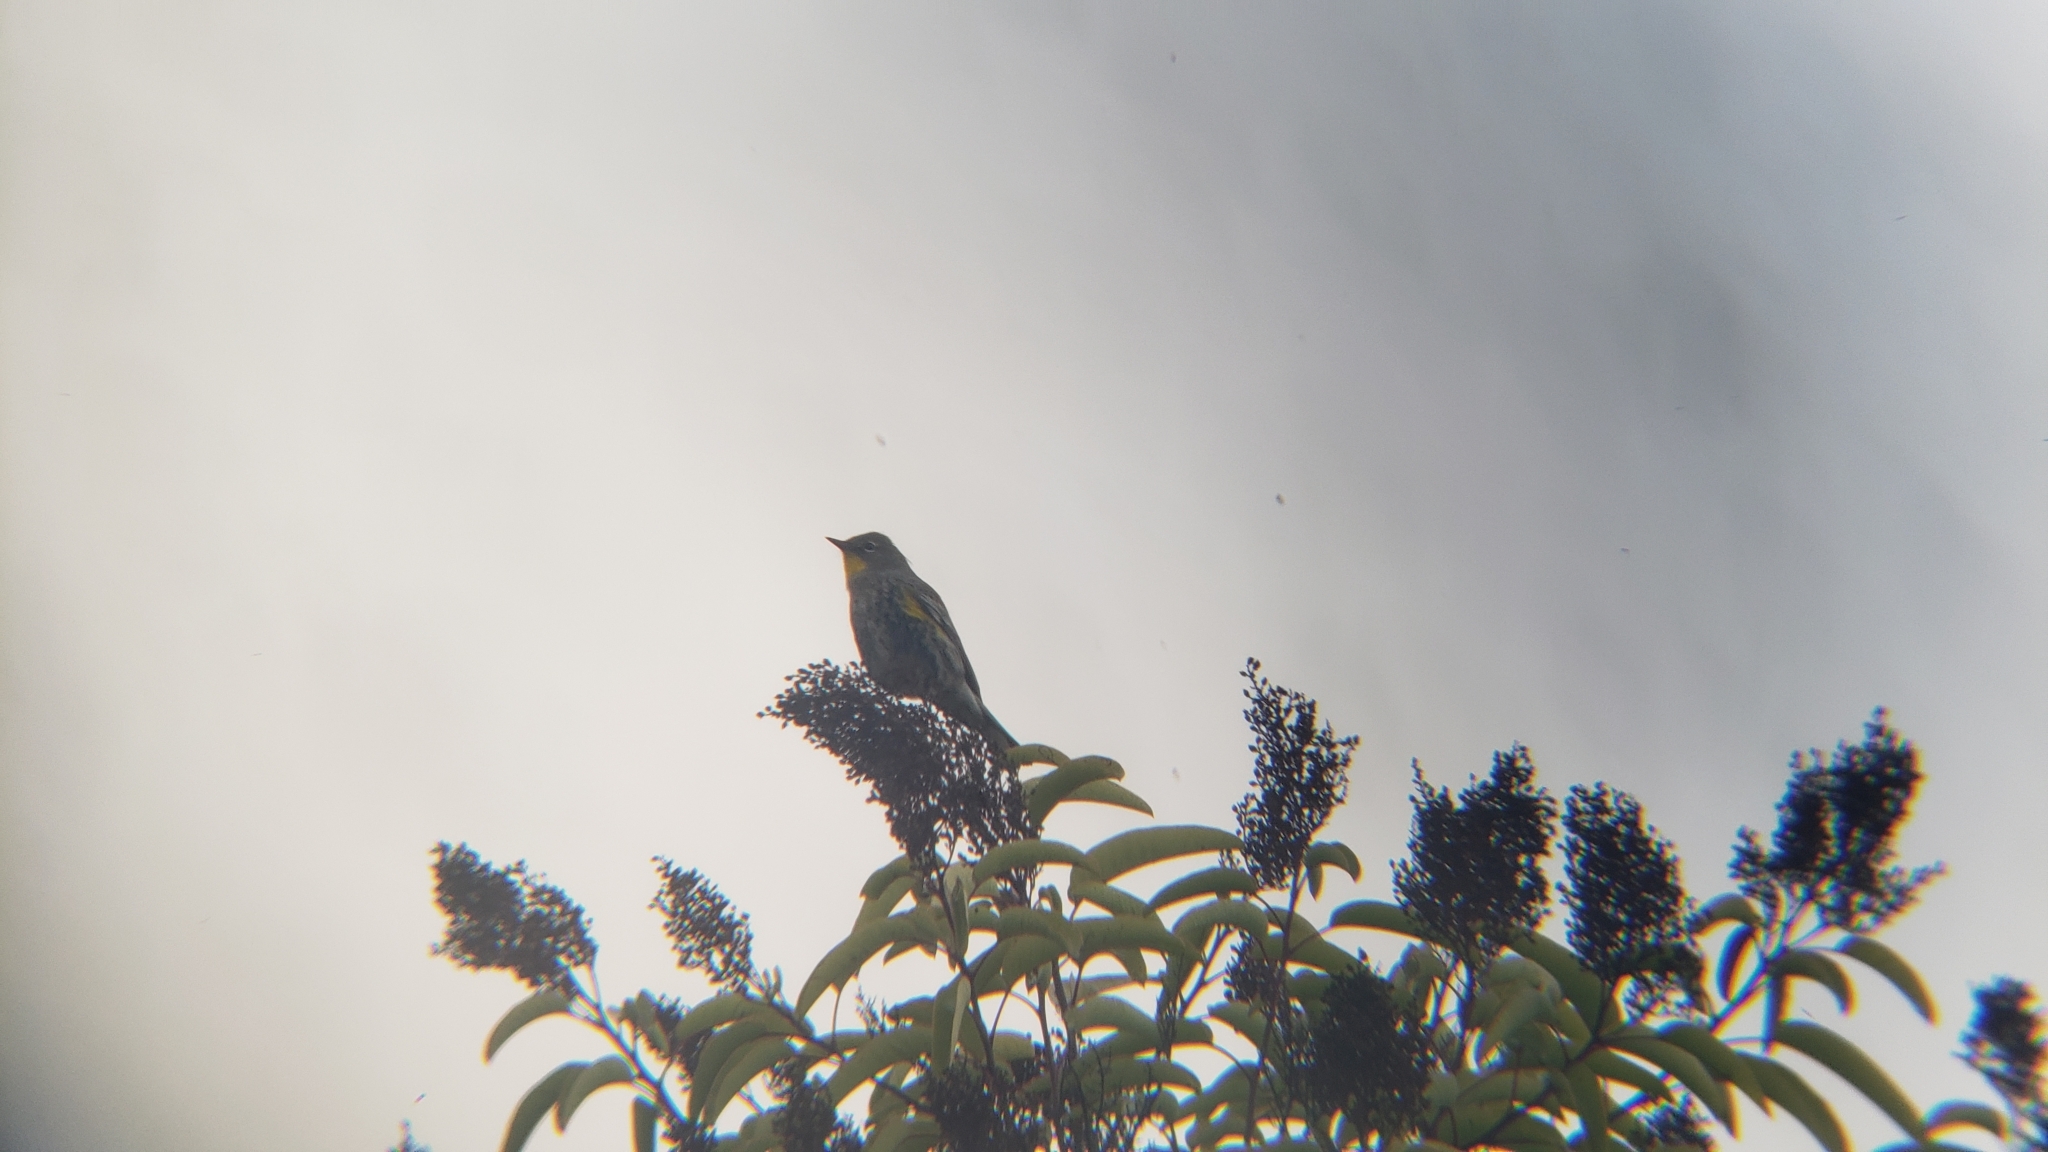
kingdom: Animalia
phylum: Chordata
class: Aves
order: Passeriformes
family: Parulidae
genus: Setophaga
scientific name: Setophaga auduboni
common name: Audubon's warbler
